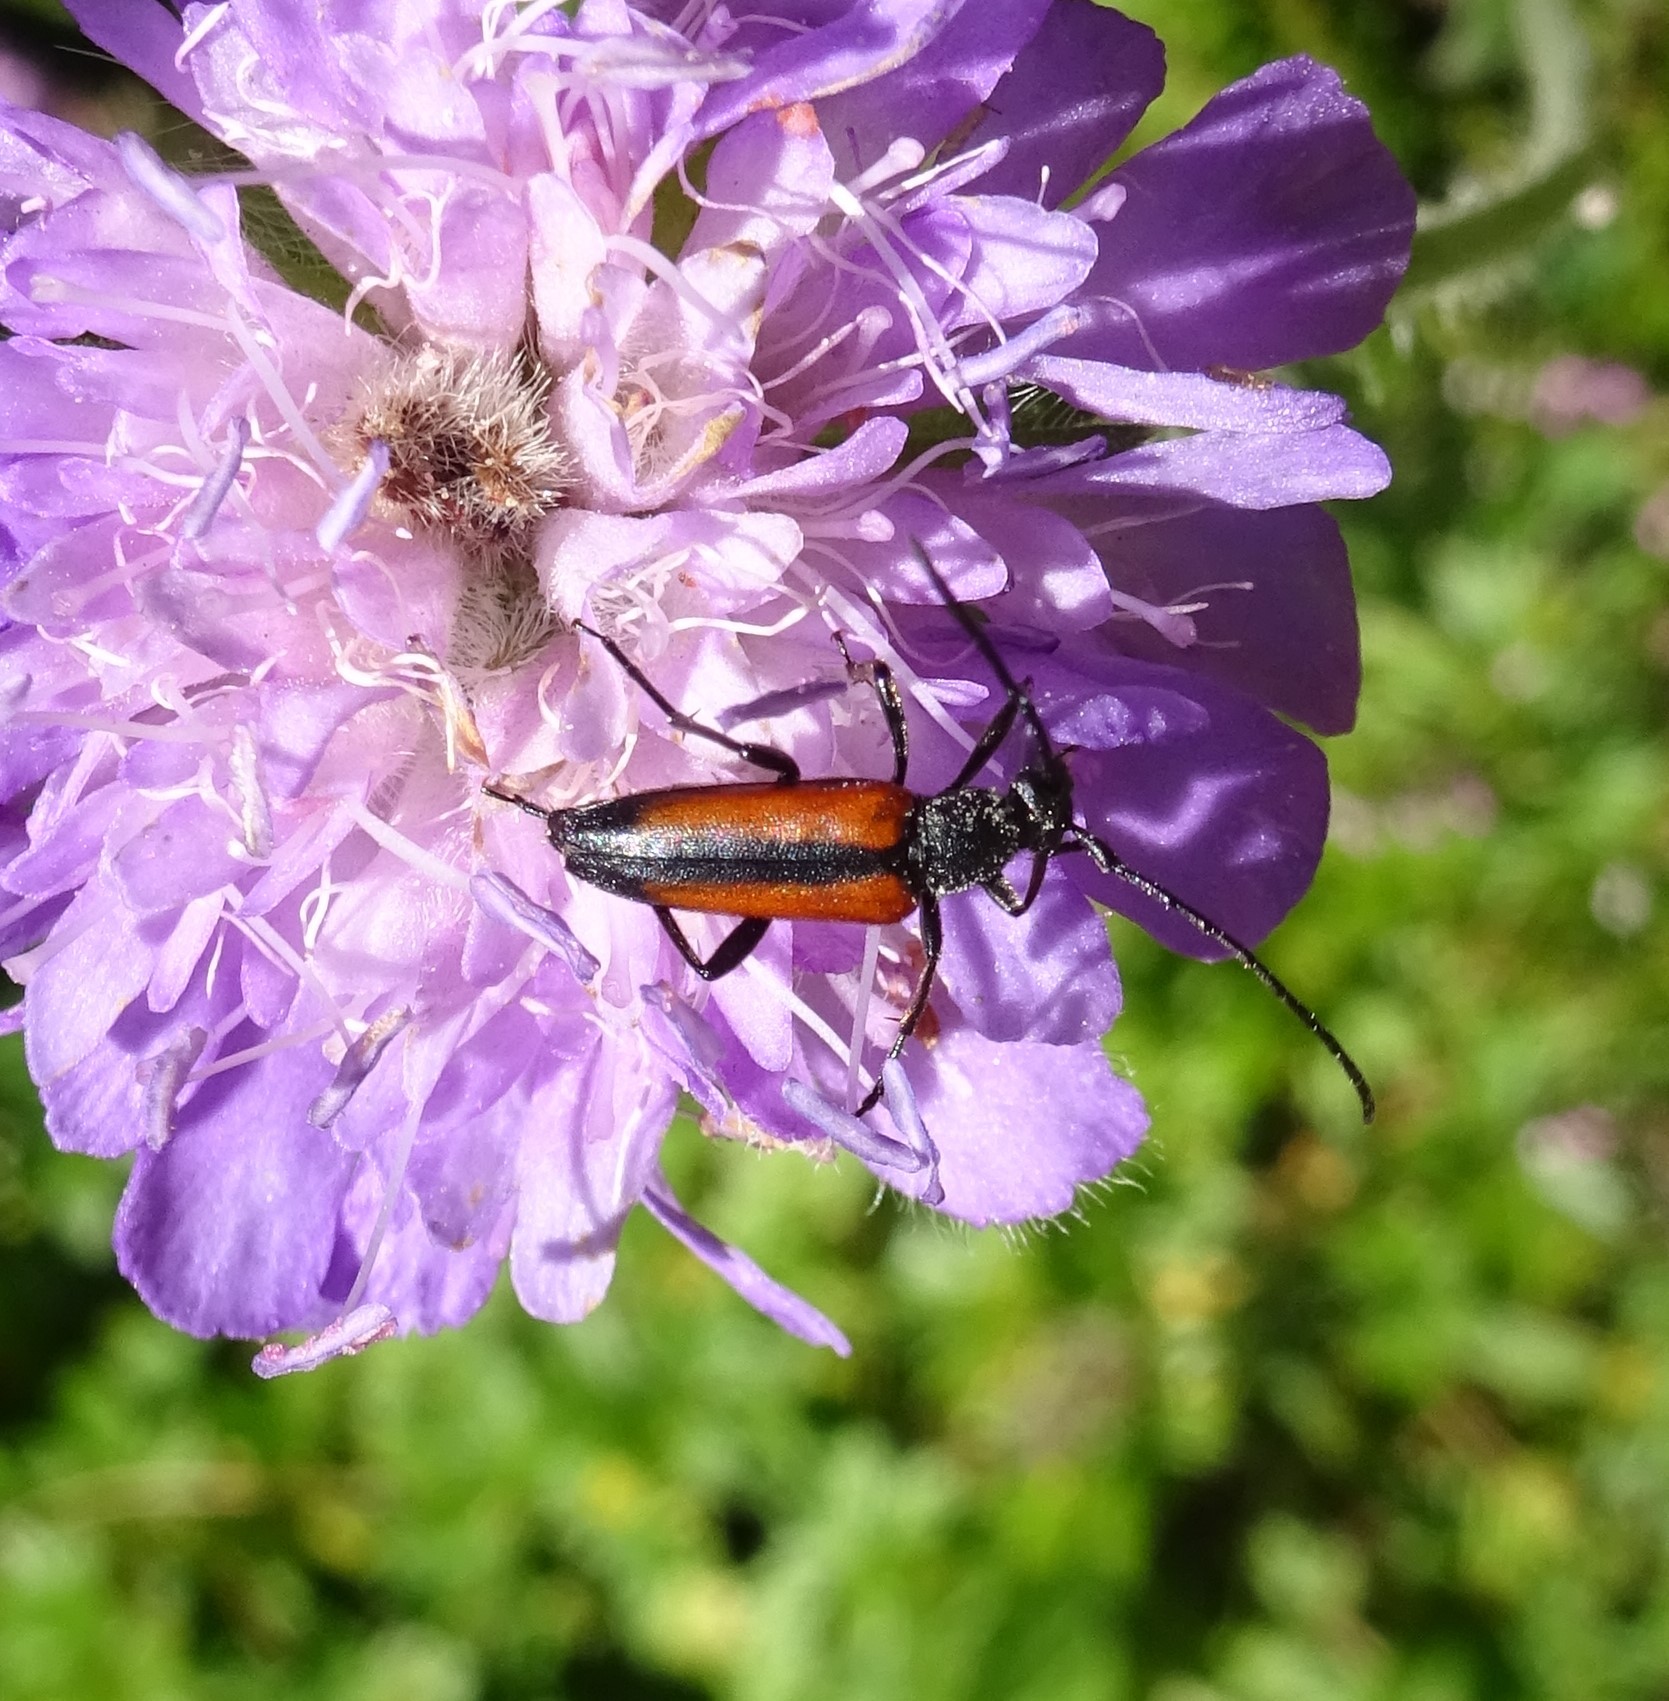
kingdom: Animalia
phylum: Arthropoda
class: Insecta
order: Coleoptera
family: Cerambycidae
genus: Stenurella
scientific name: Stenurella melanura
